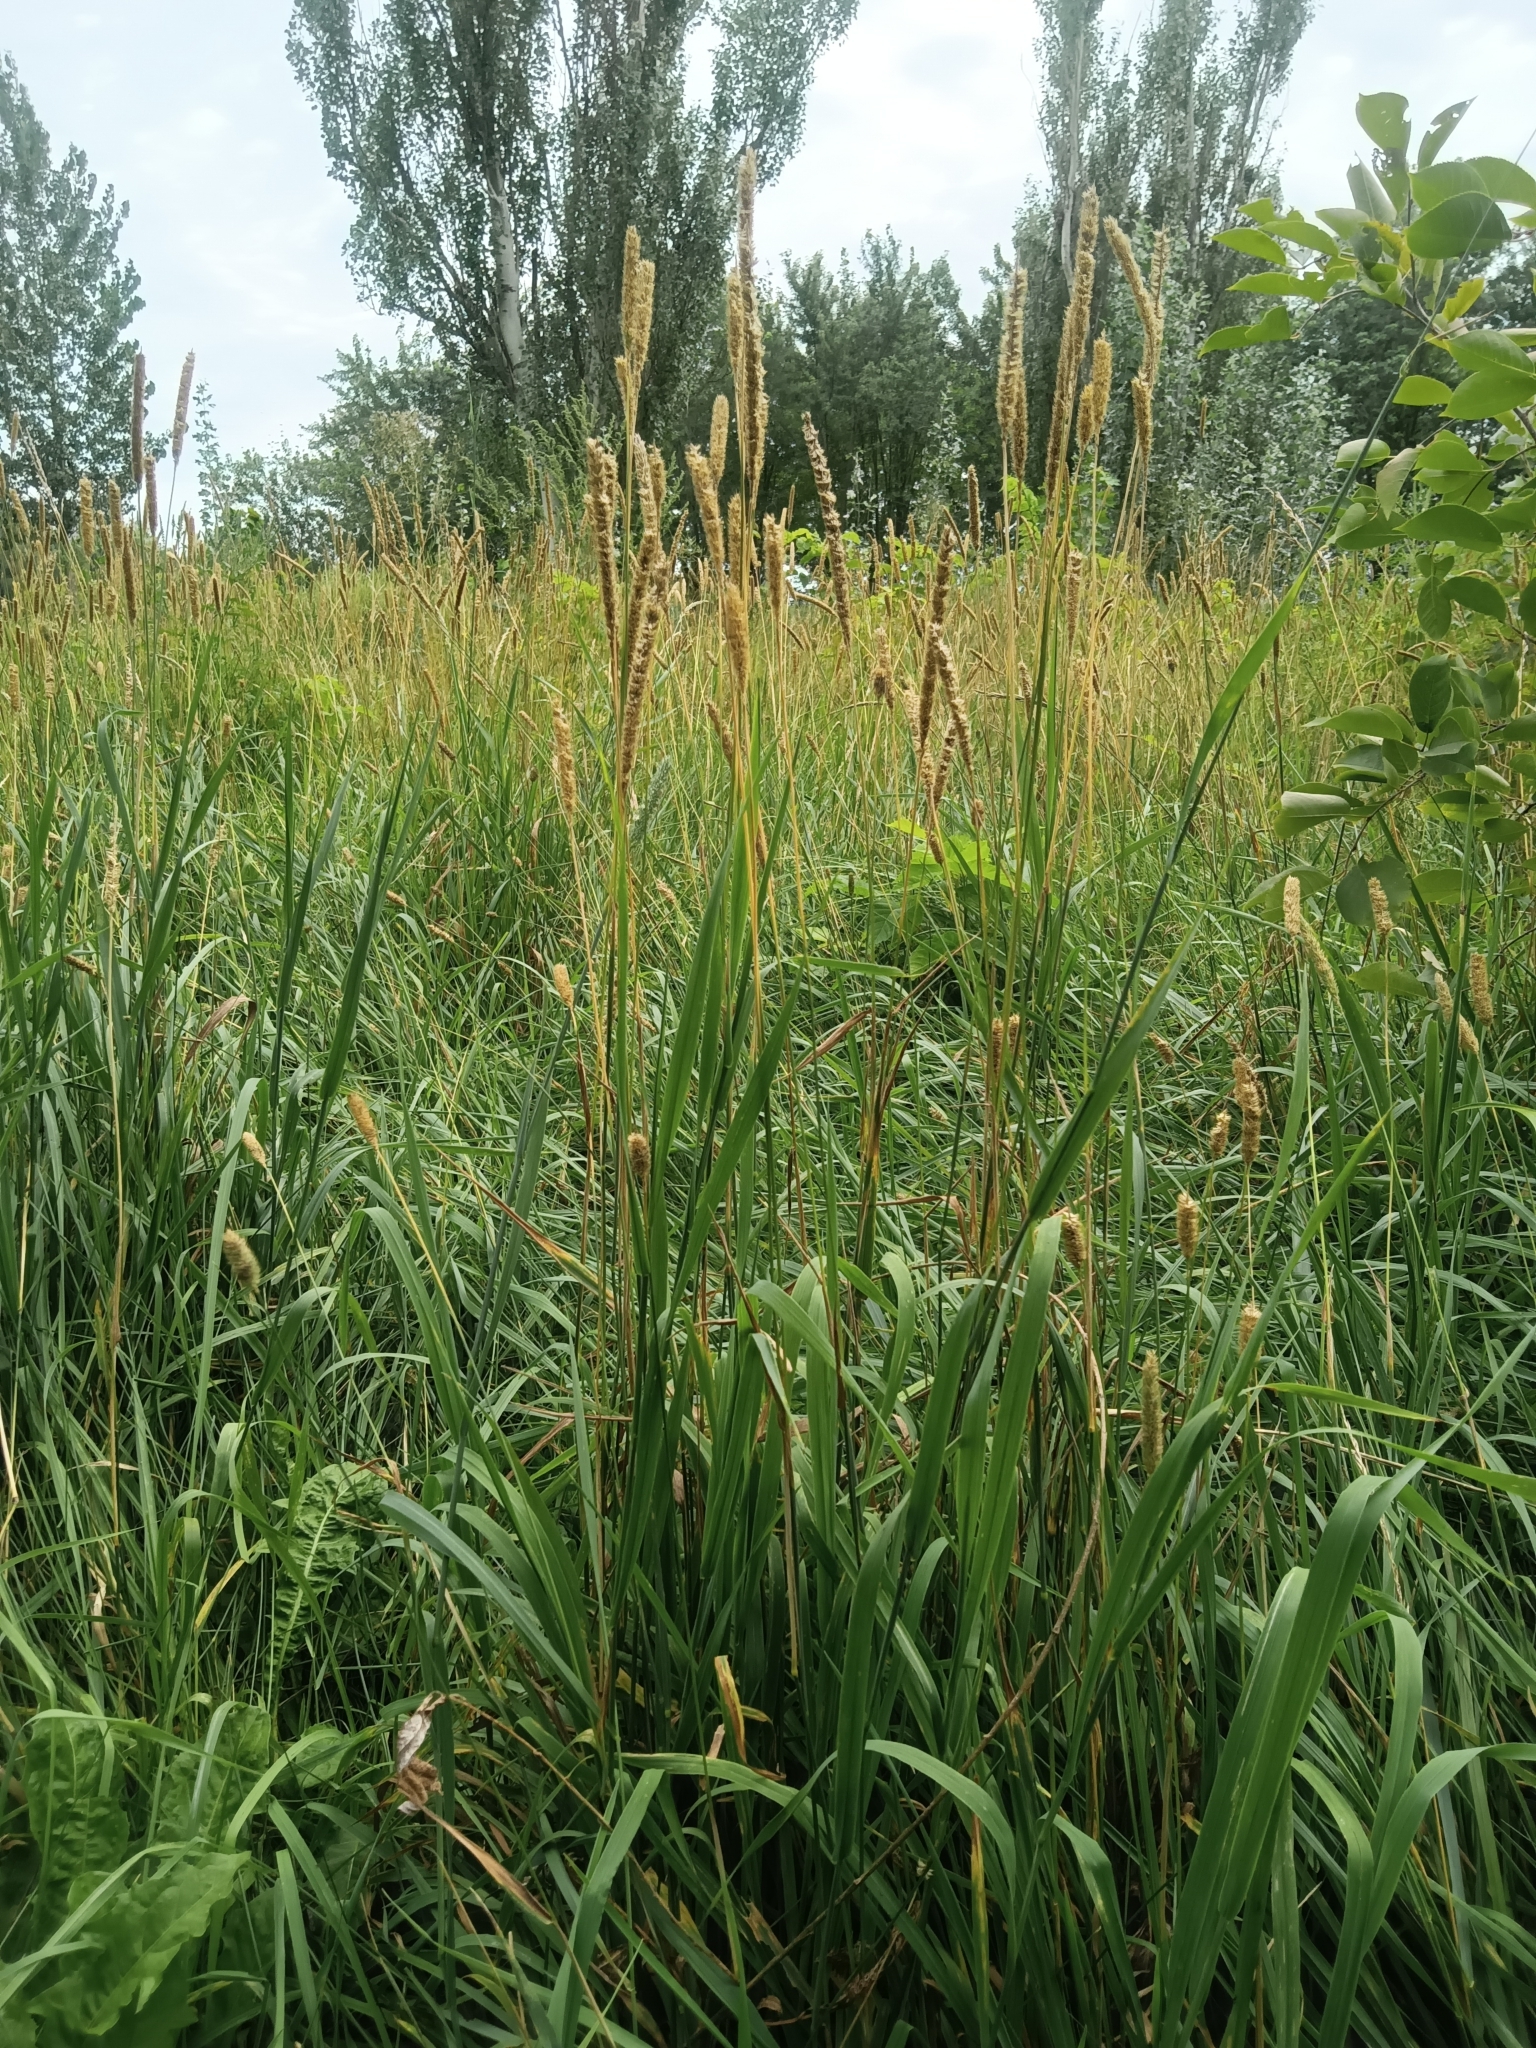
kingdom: Plantae
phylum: Tracheophyta
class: Liliopsida
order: Poales
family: Poaceae
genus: Phleum
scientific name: Phleum pratense
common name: Timothy grass
